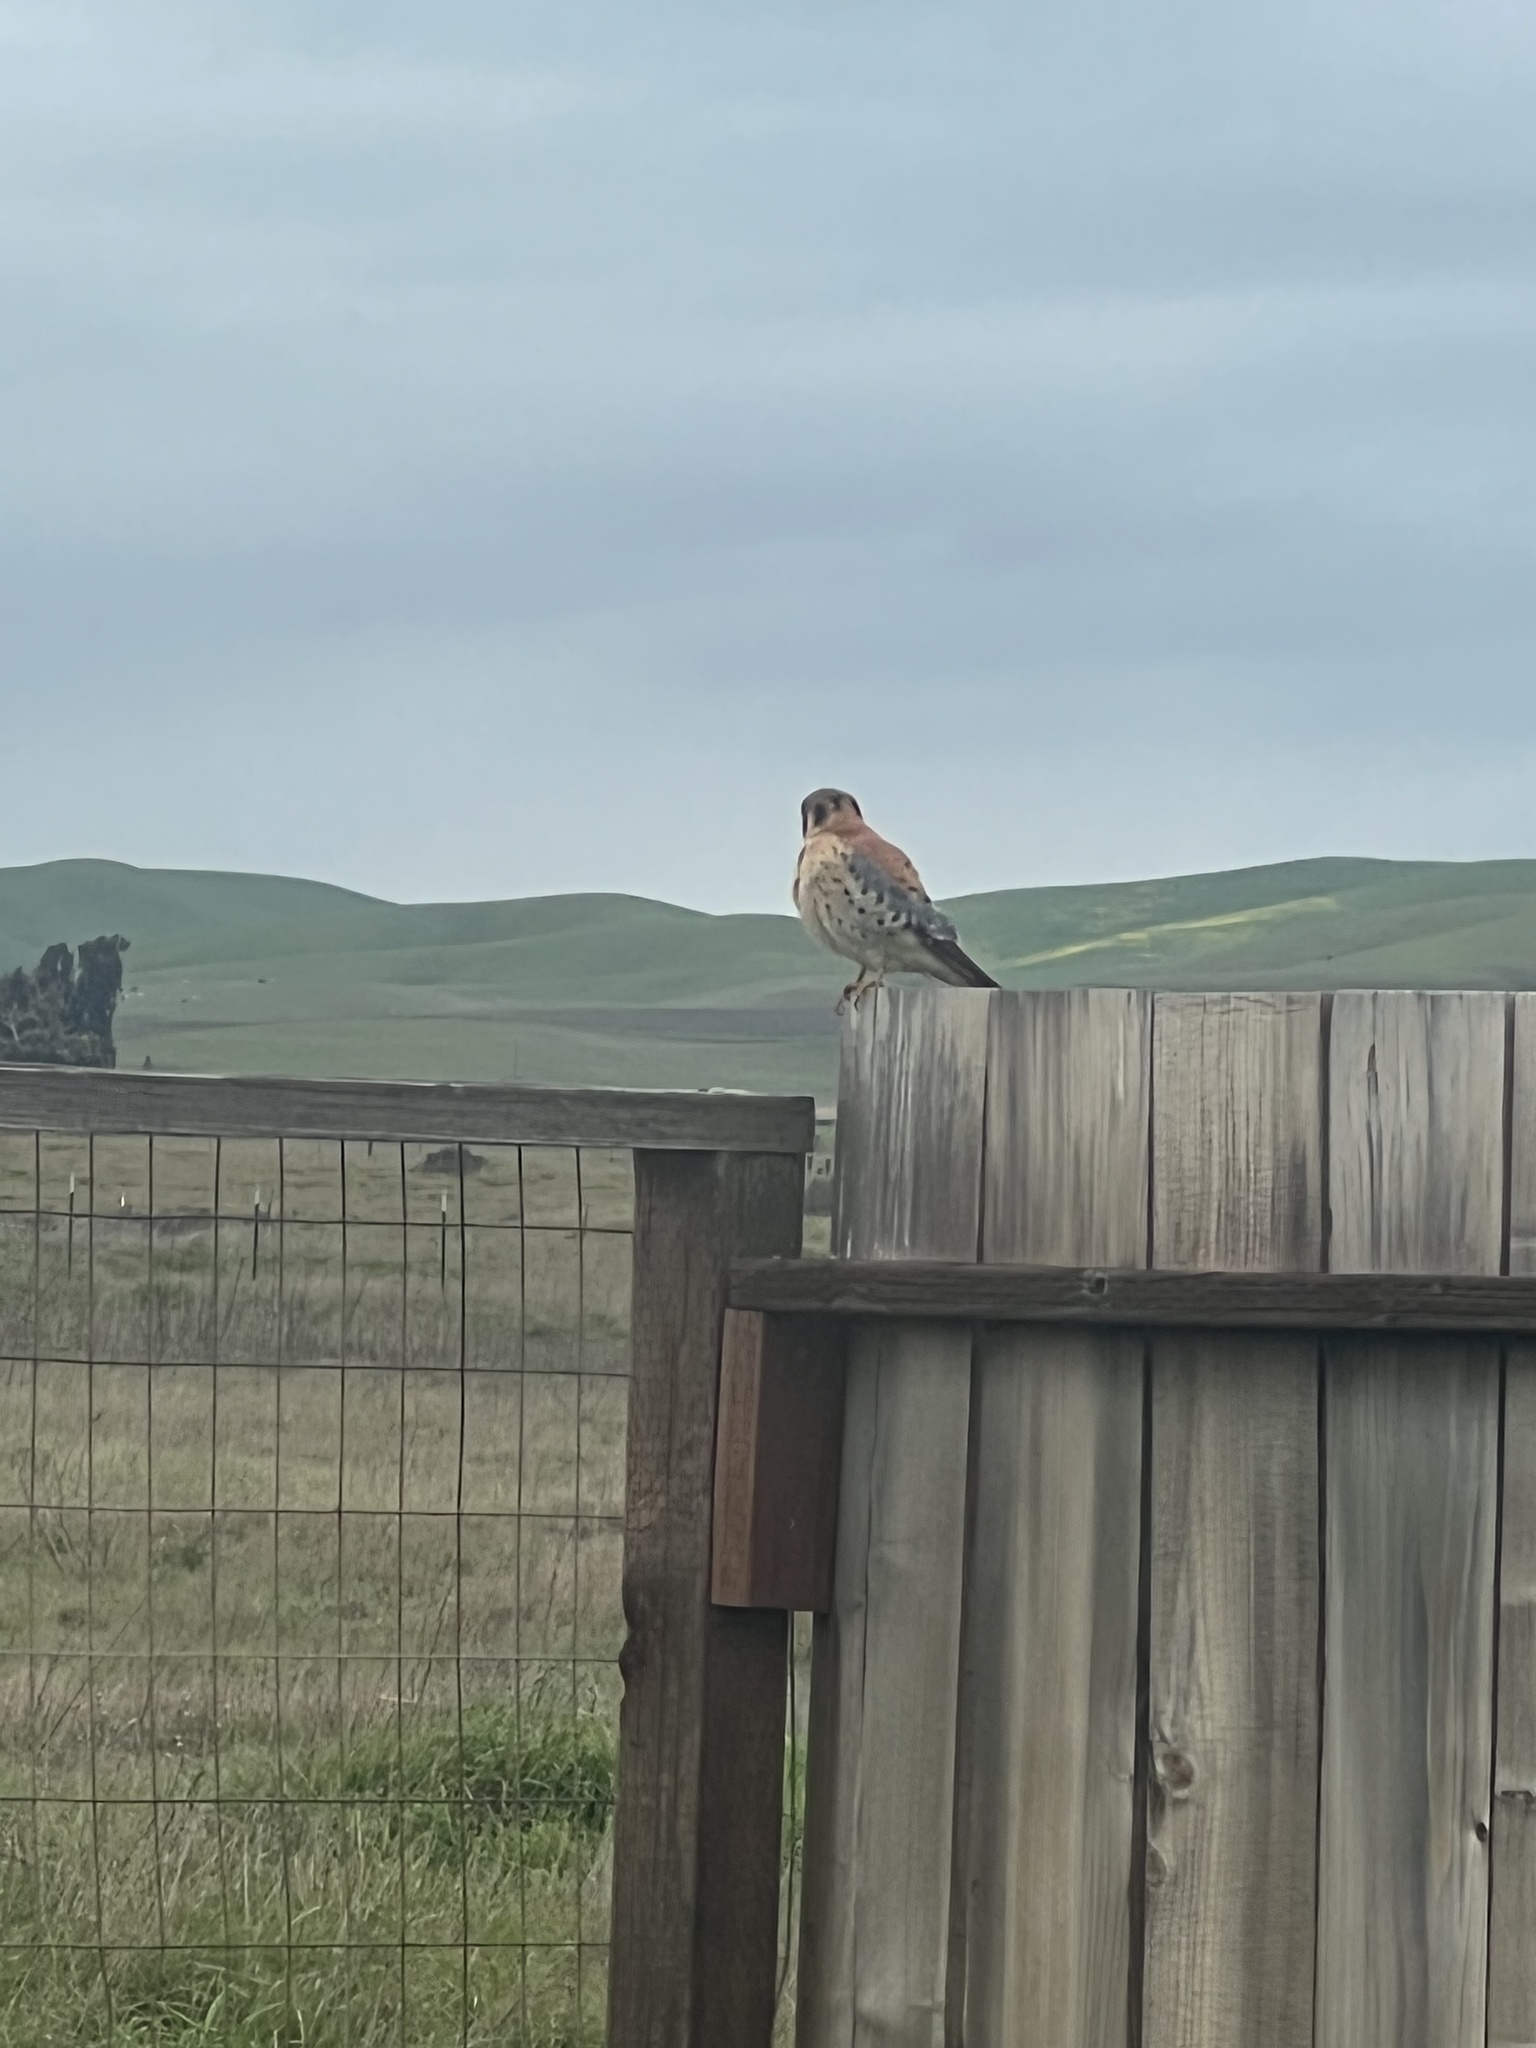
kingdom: Animalia
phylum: Chordata
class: Aves
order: Falconiformes
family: Falconidae
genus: Falco
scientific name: Falco sparverius
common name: American kestrel
